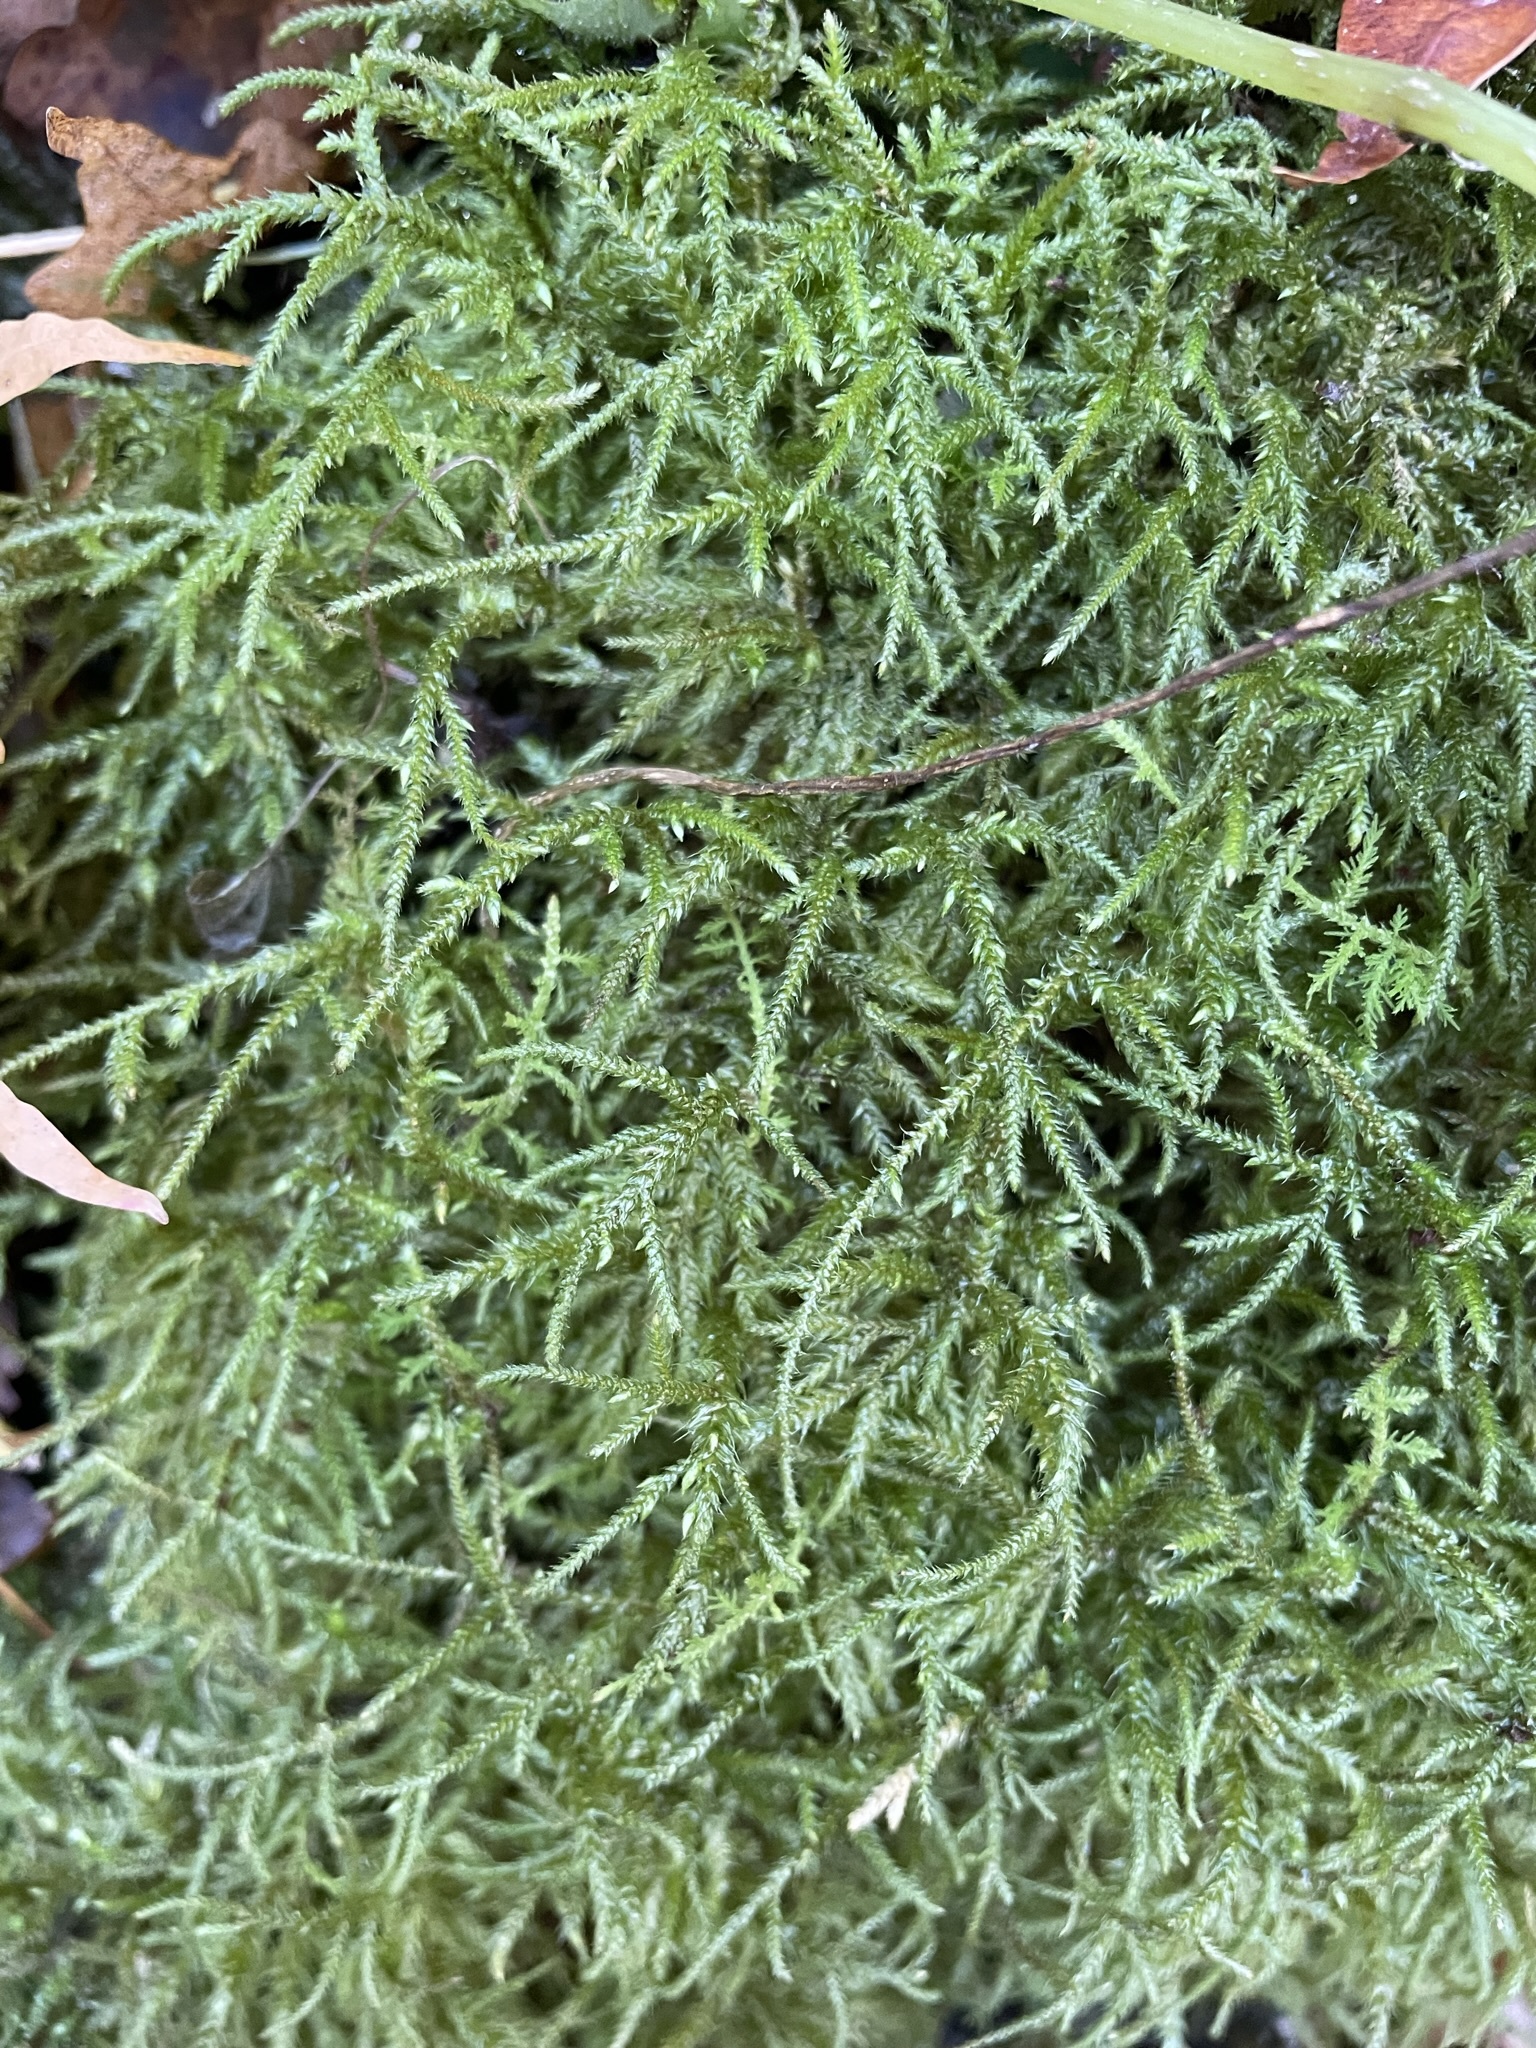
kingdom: Plantae
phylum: Bryophyta
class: Bryopsida
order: Hypnales
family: Hylocomiaceae
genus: Loeskeobryum
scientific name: Loeskeobryum brevirostre
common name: Short-beaked wood-moss
